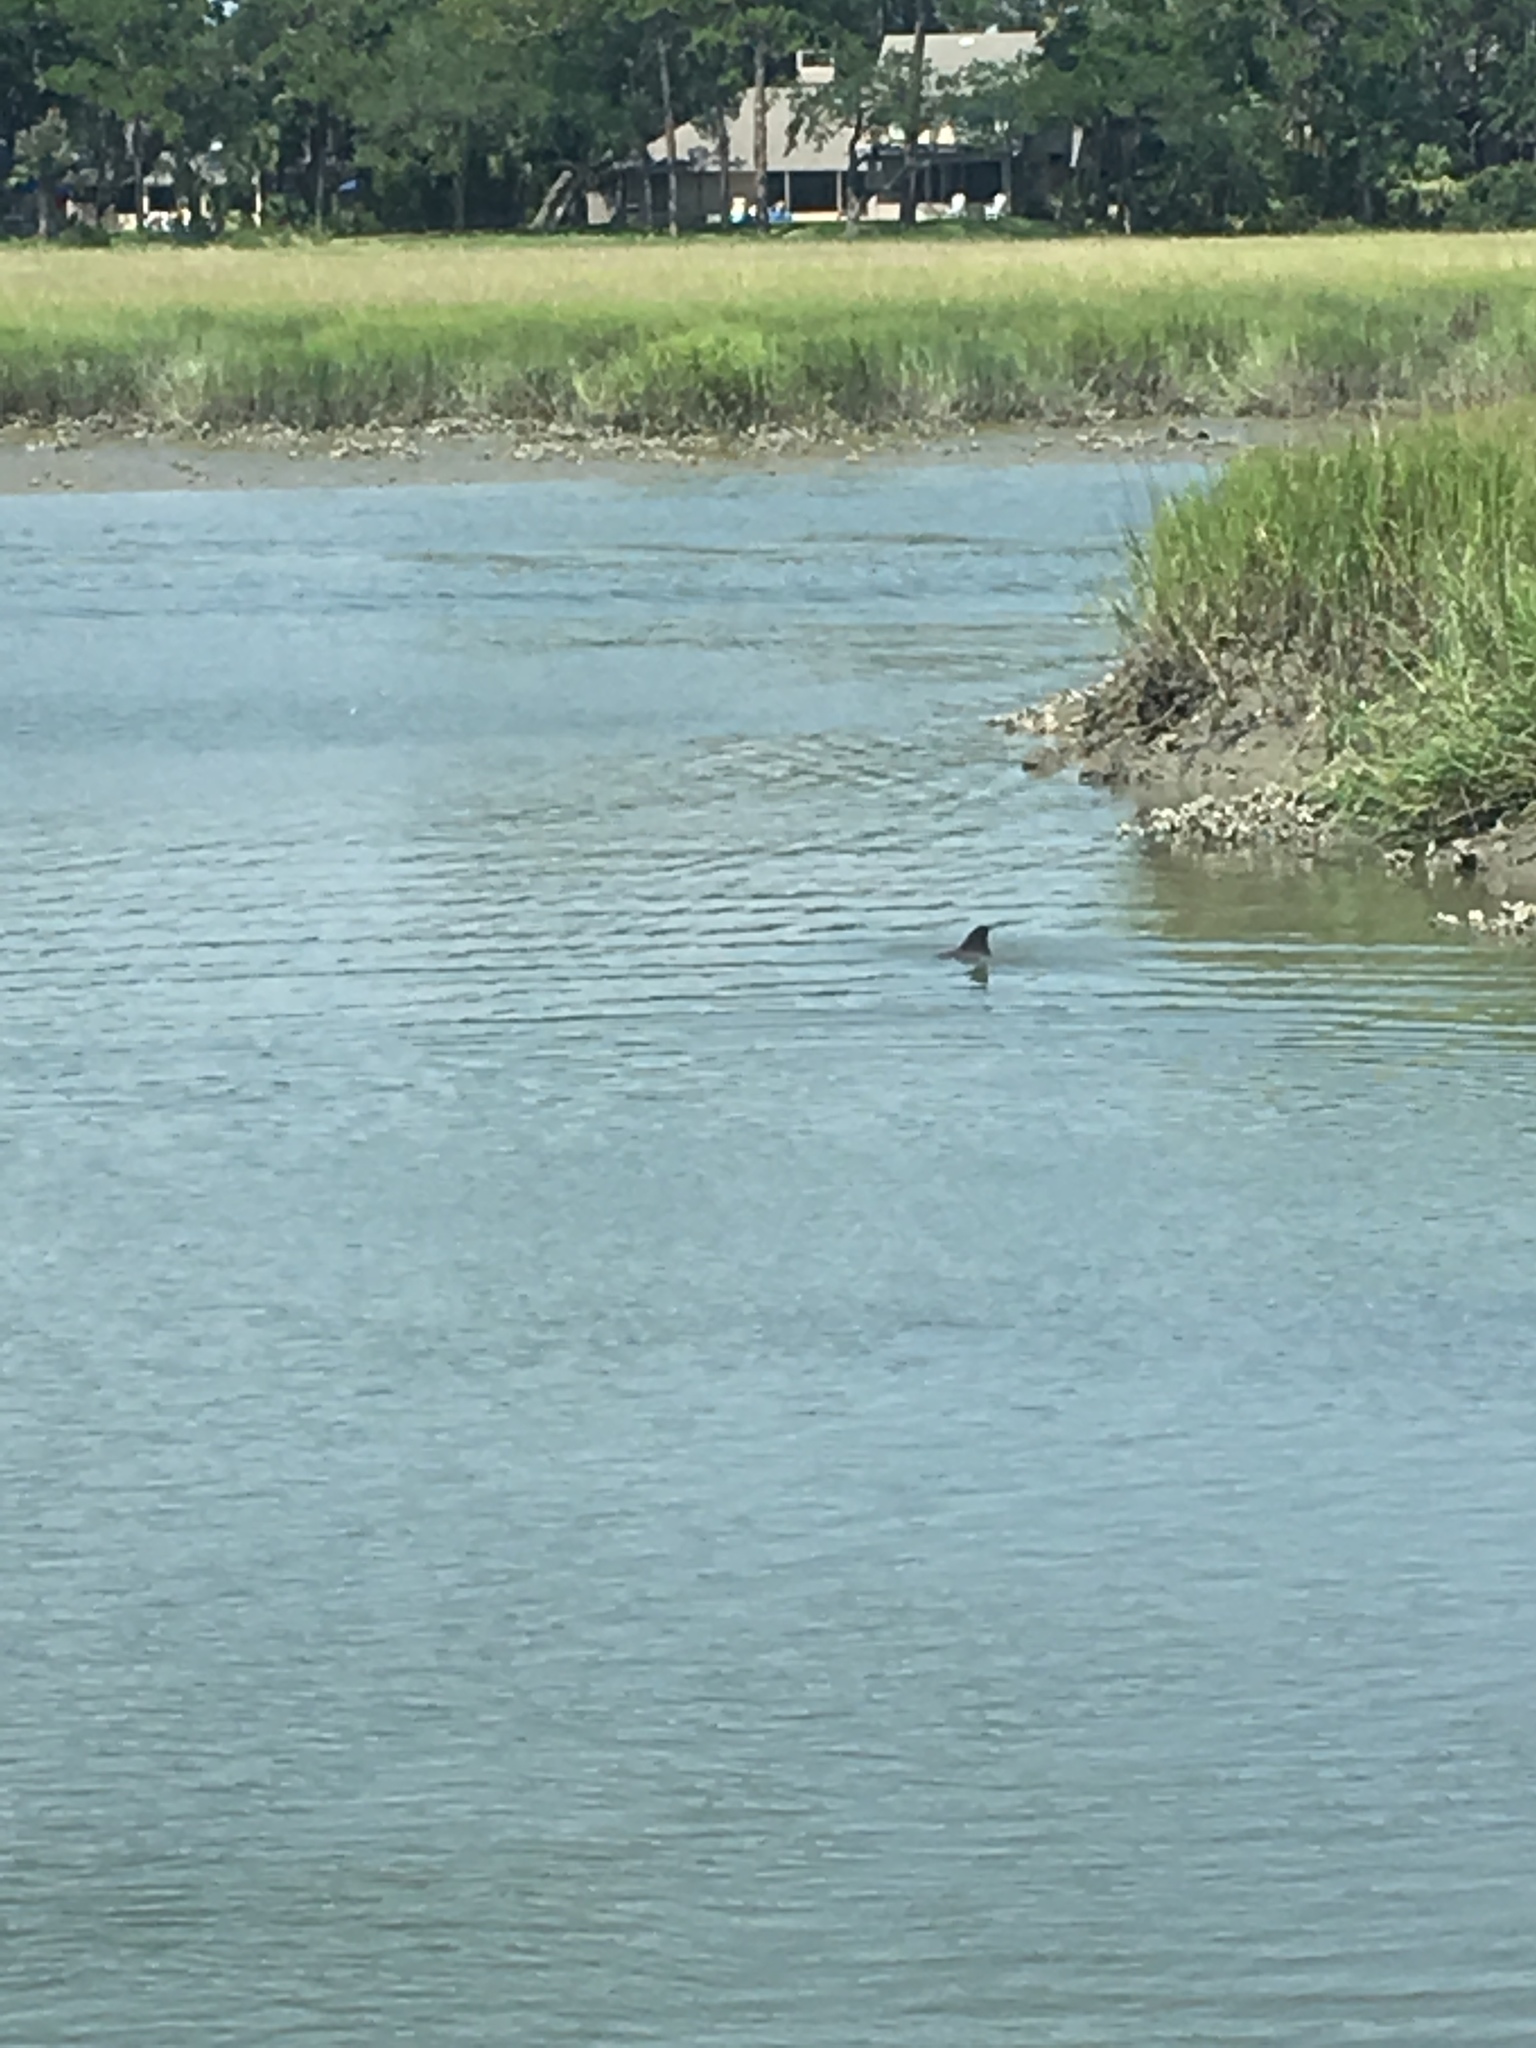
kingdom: Animalia
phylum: Chordata
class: Mammalia
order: Cetacea
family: Delphinidae
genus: Tursiops
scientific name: Tursiops truncatus
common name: Bottlenose dolphin
